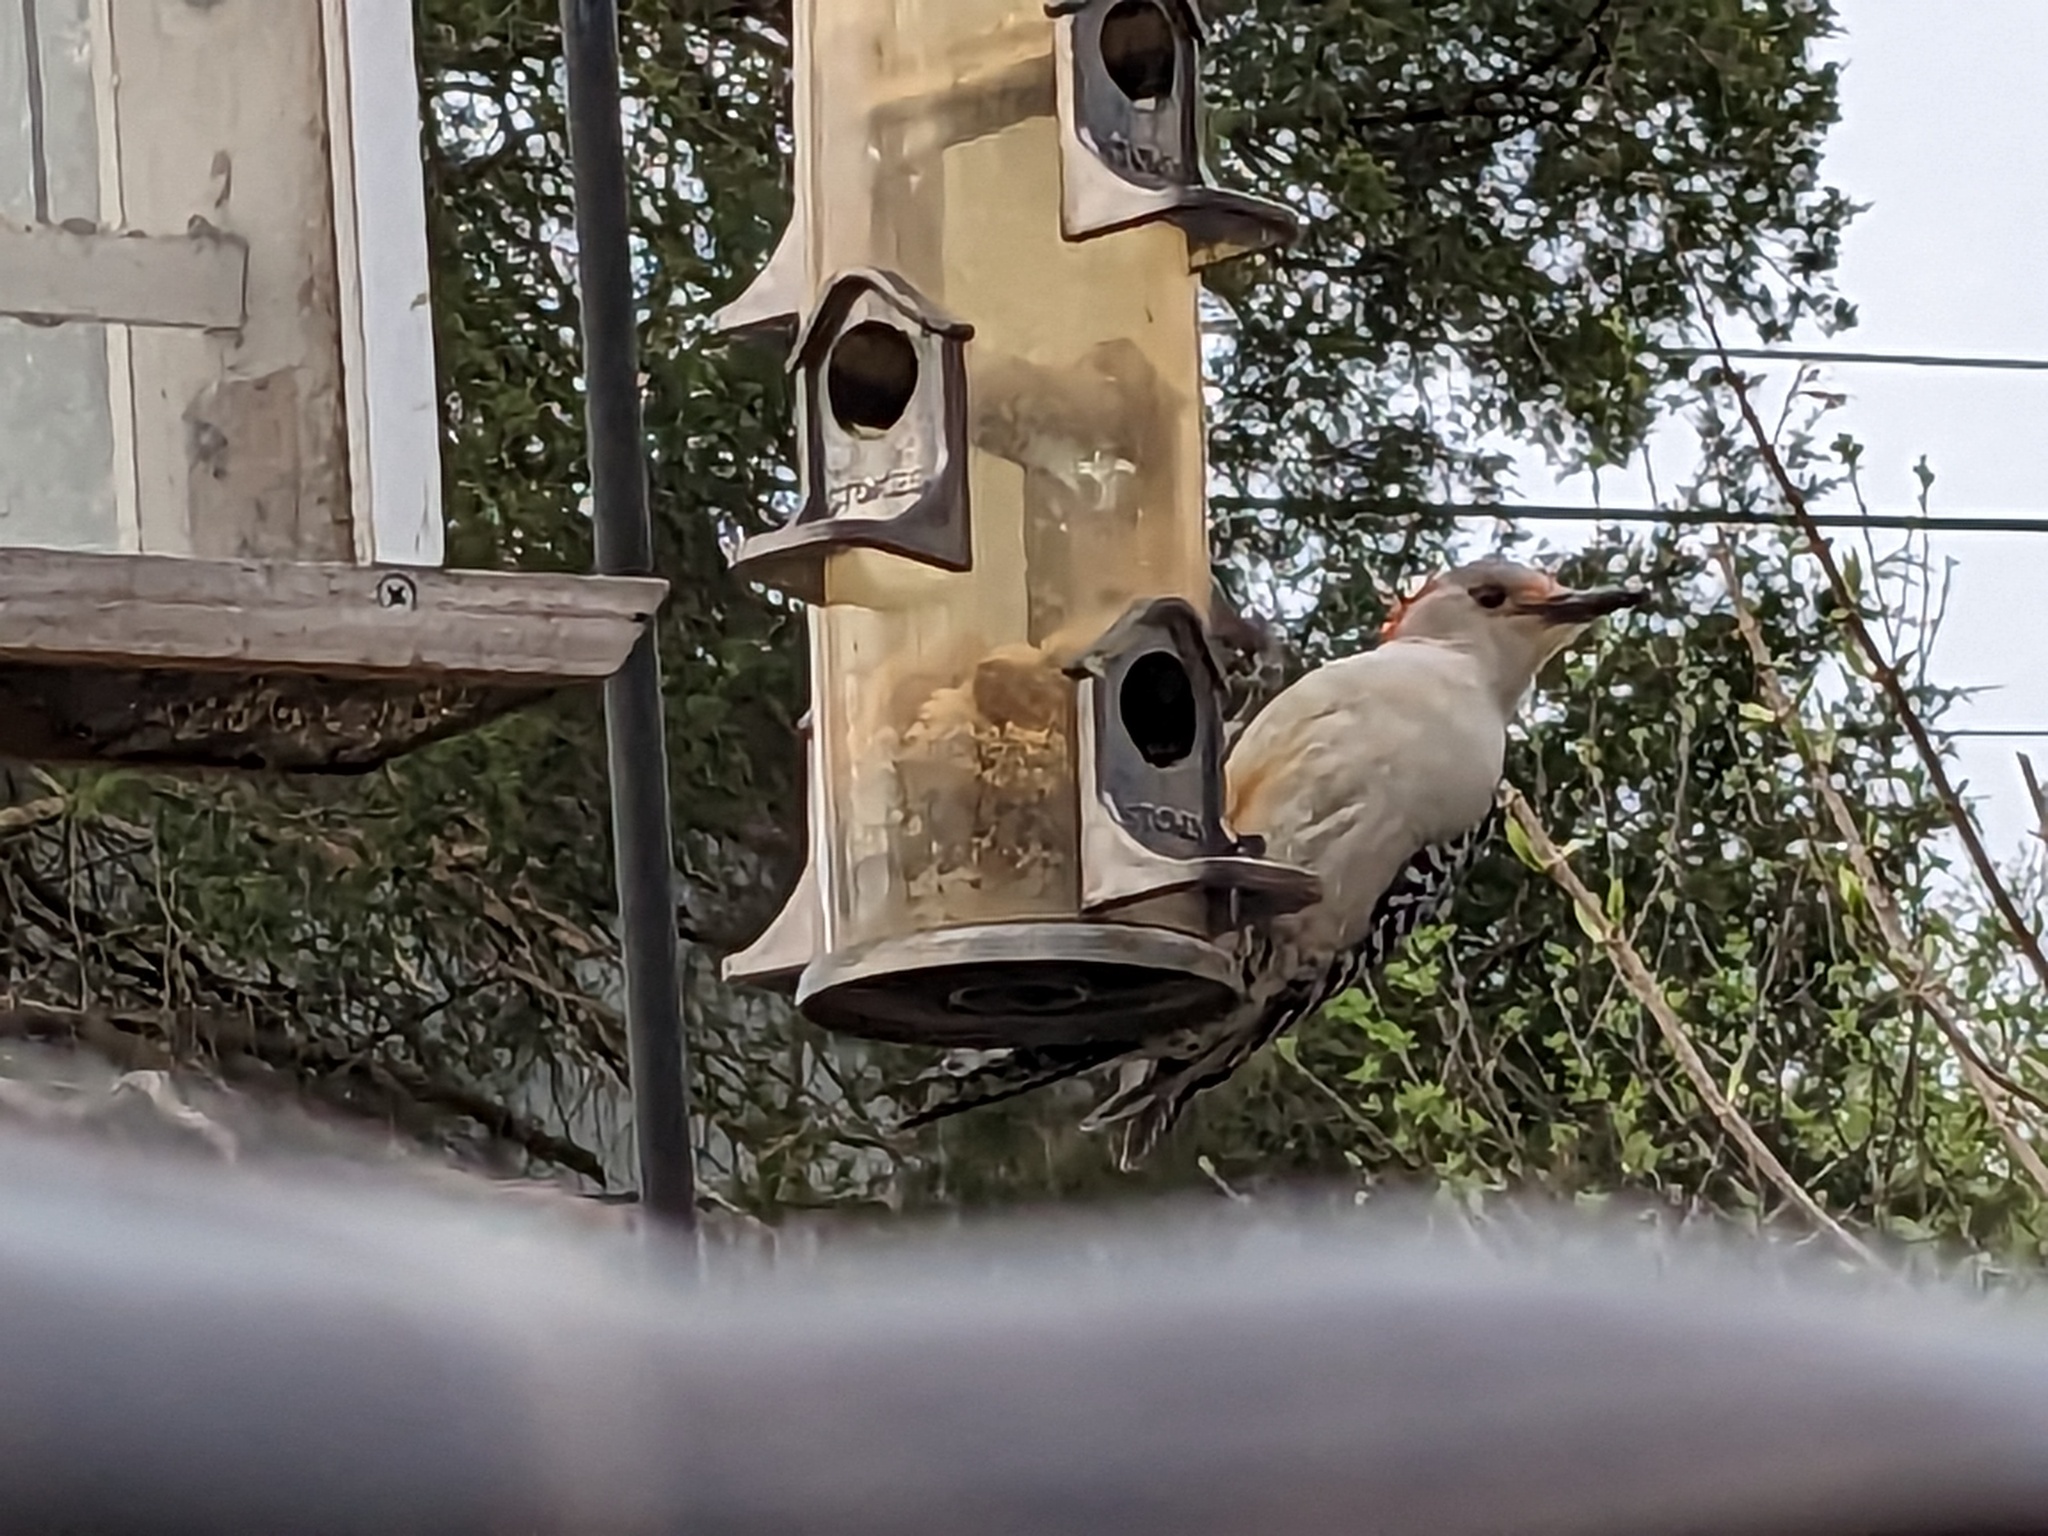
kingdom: Animalia
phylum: Chordata
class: Aves
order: Piciformes
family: Picidae
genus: Melanerpes
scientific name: Melanerpes carolinus
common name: Red-bellied woodpecker
